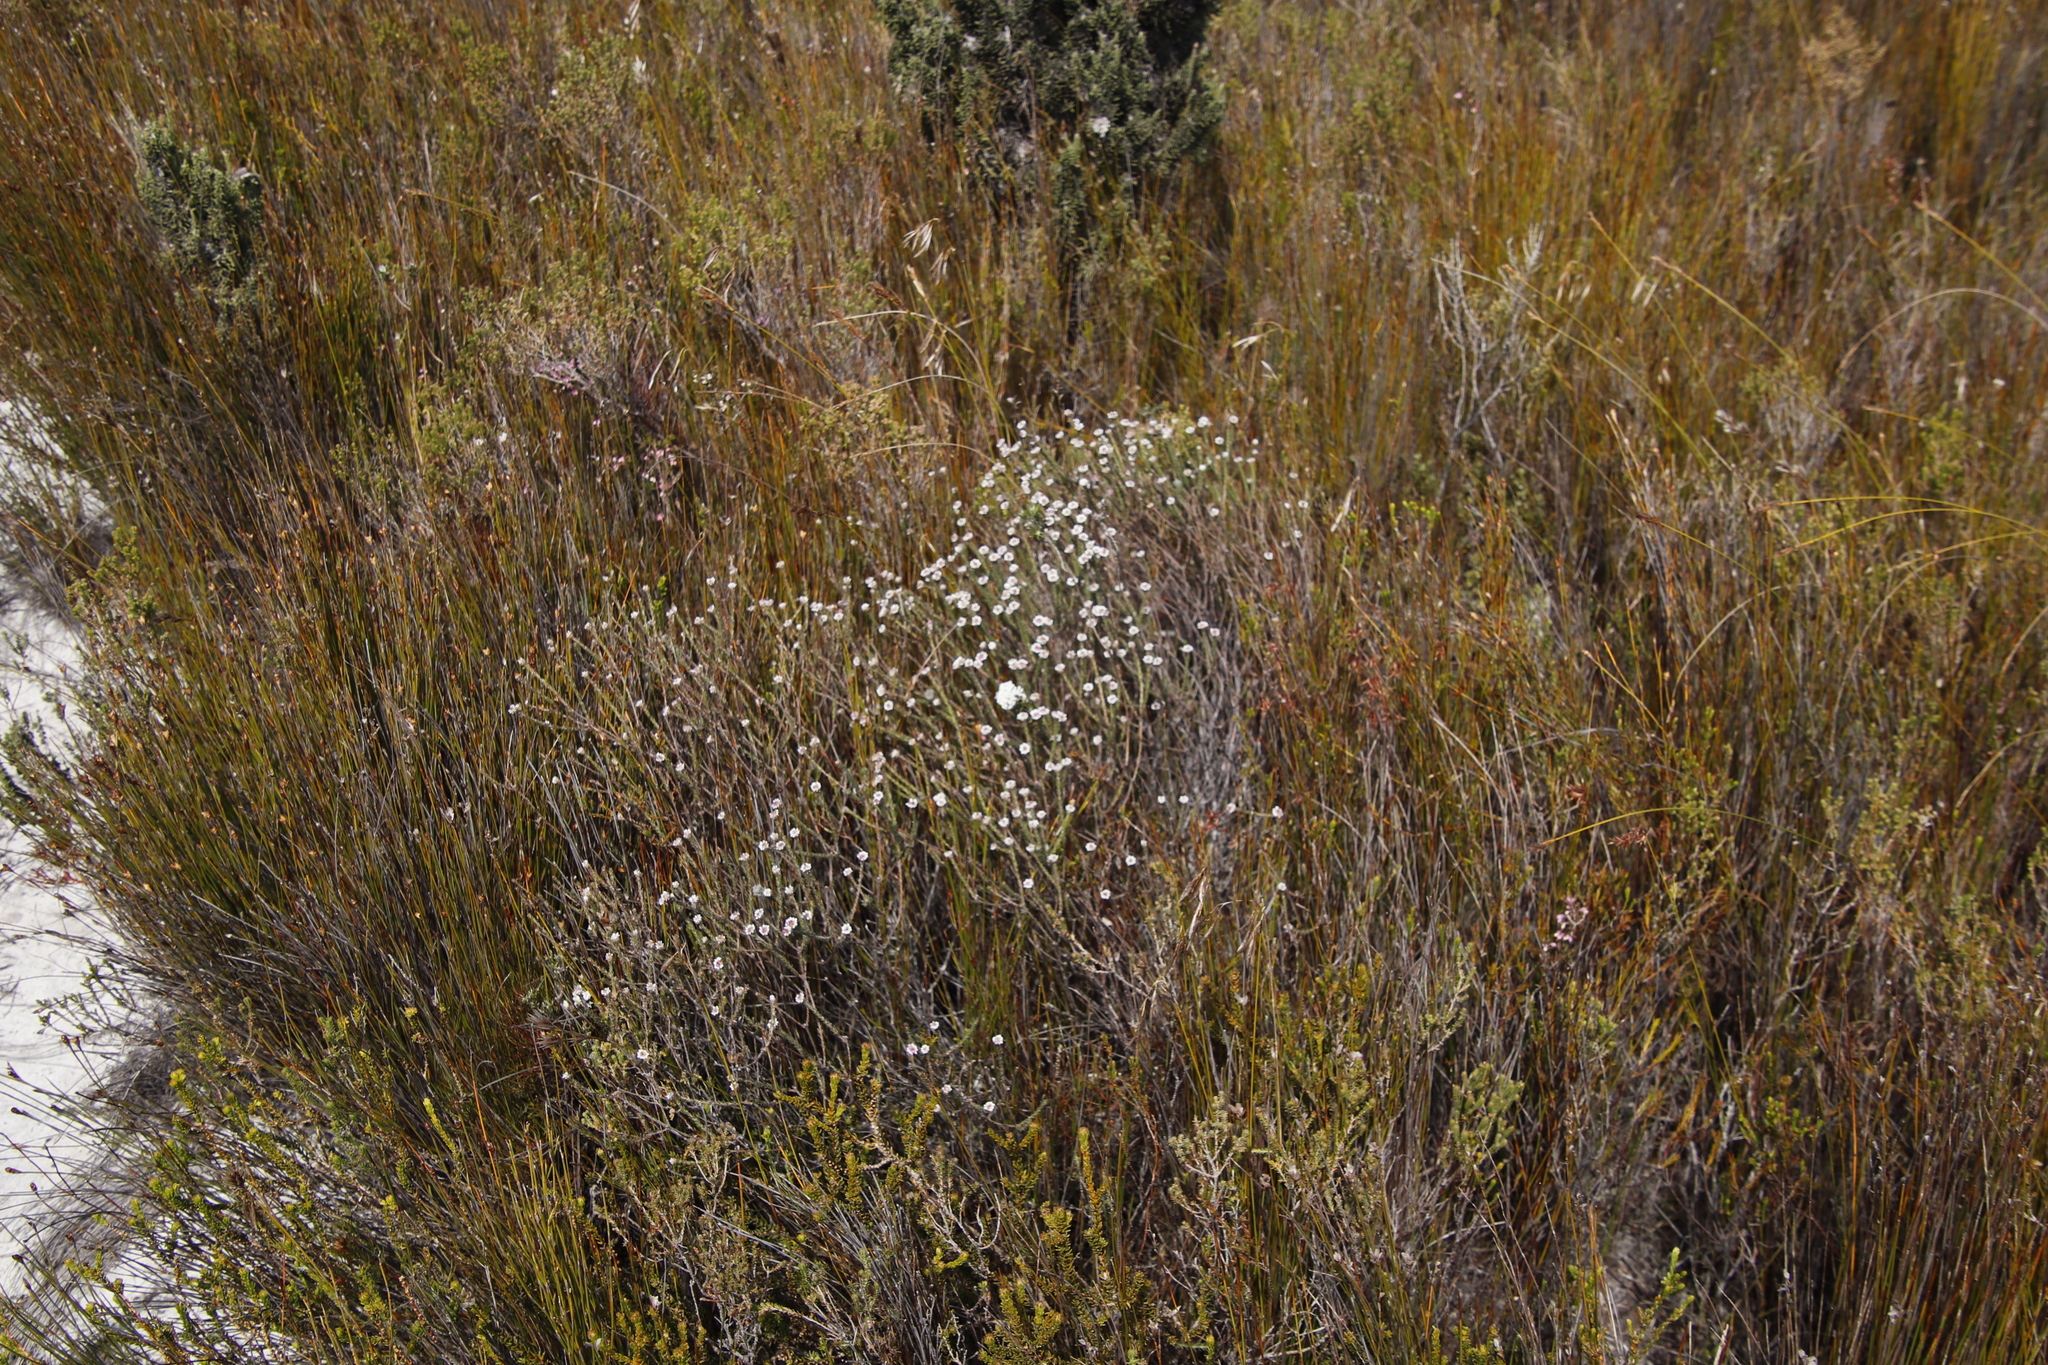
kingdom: Plantae
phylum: Tracheophyta
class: Magnoliopsida
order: Bruniales
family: Bruniaceae
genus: Staavia
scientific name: Staavia radiata
